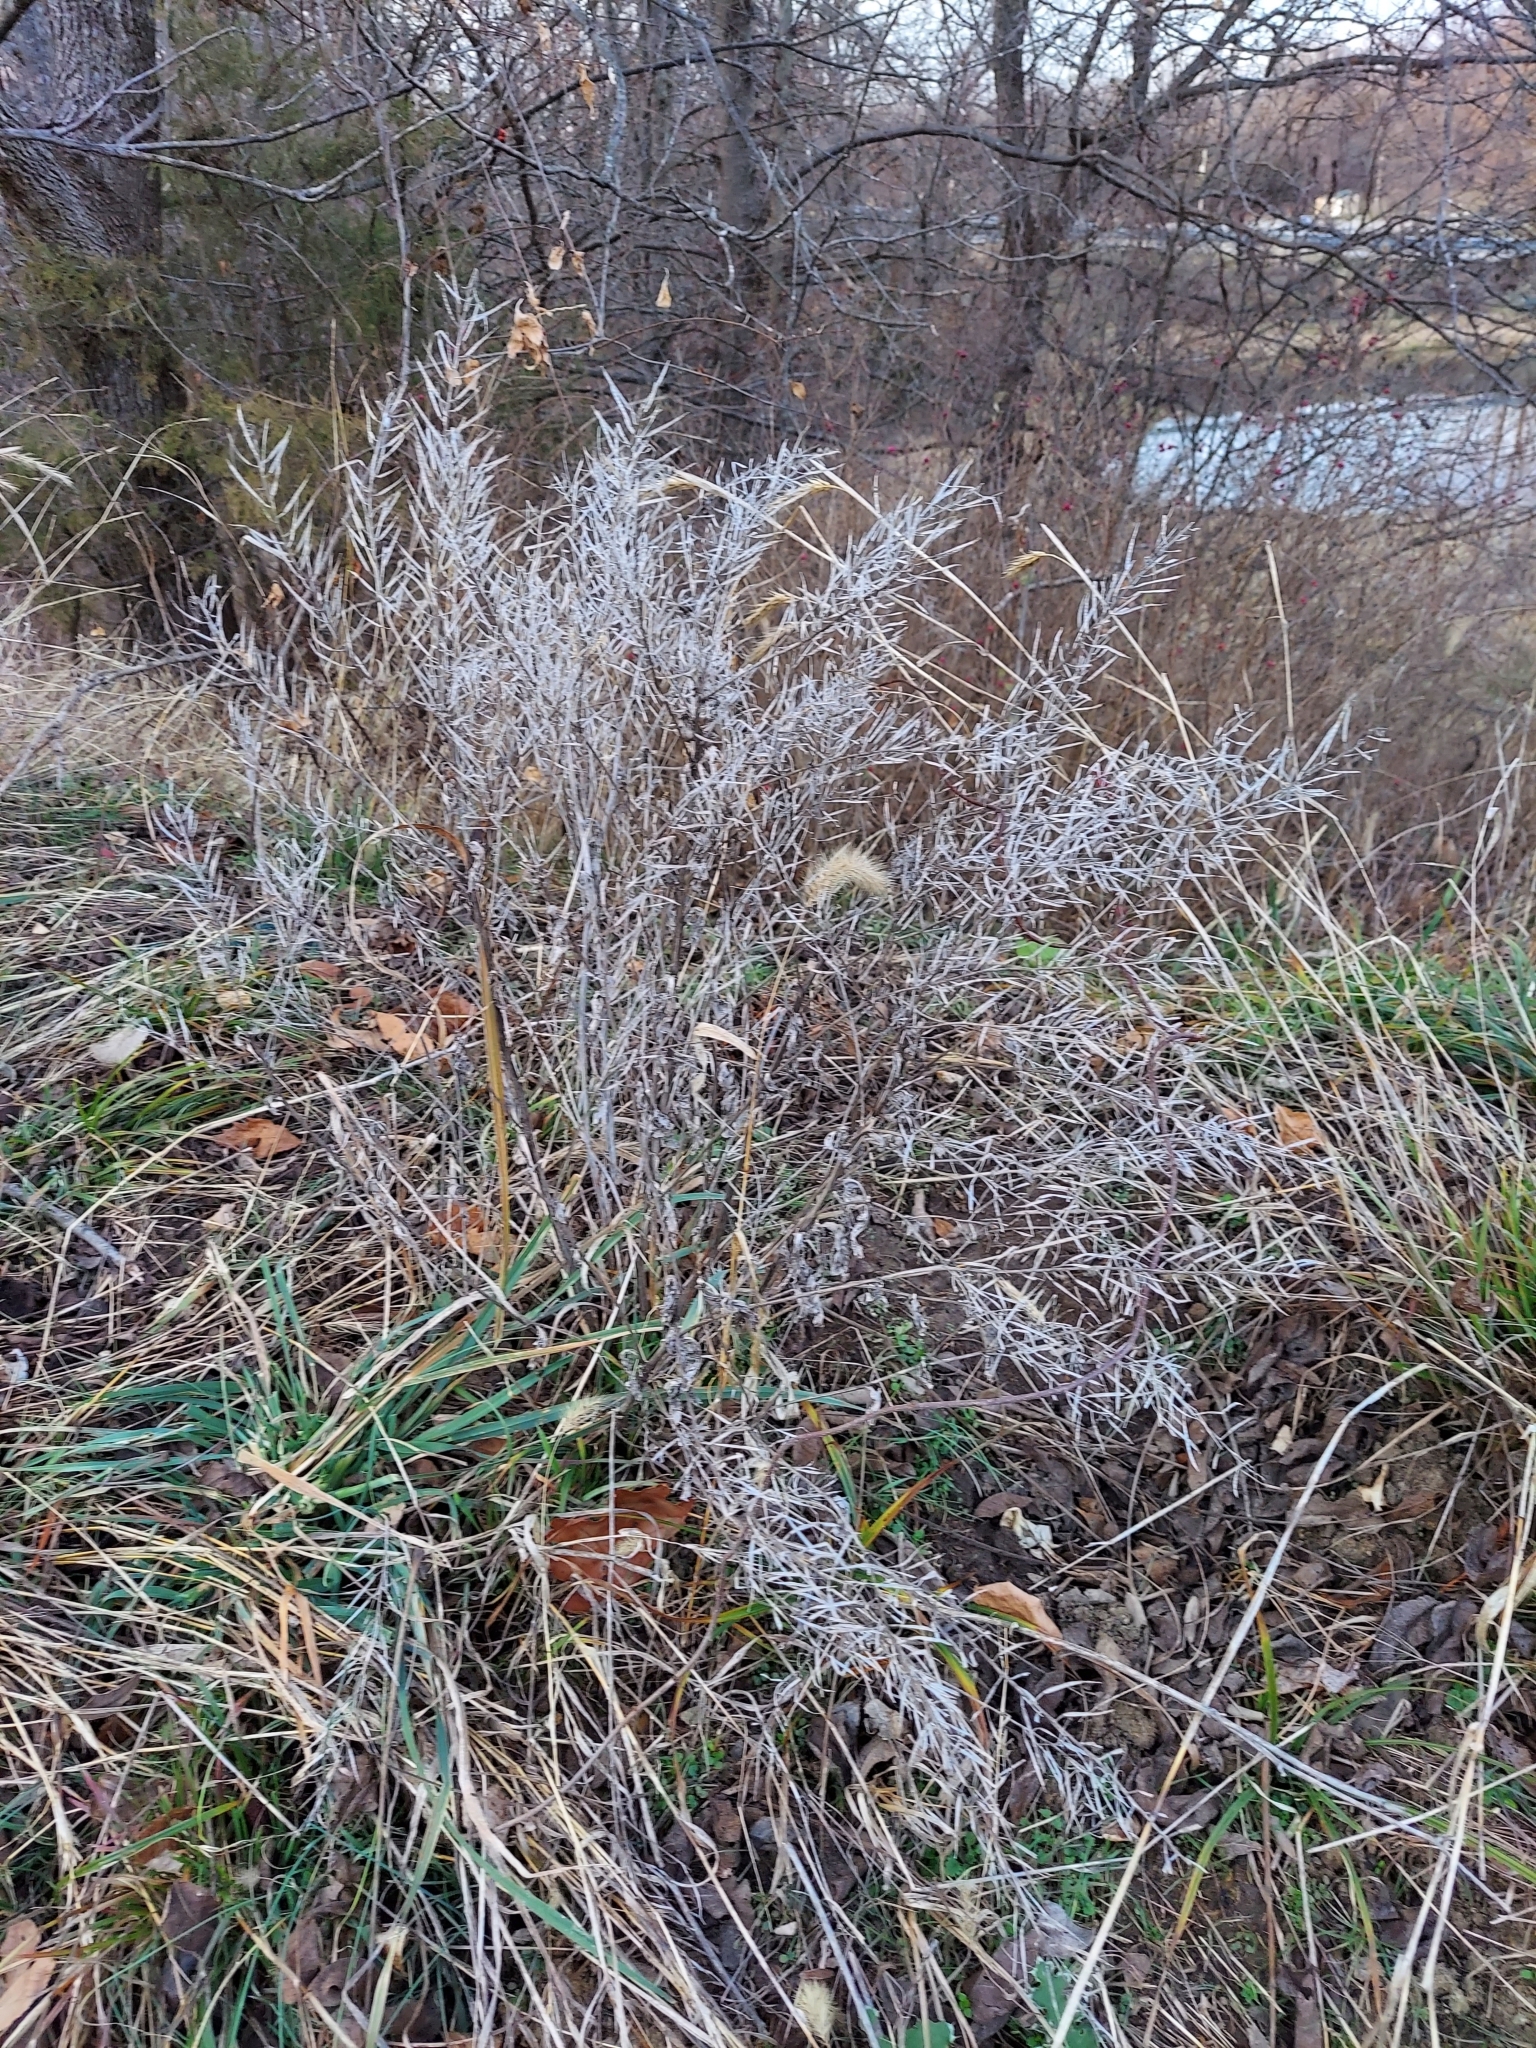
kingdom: Plantae
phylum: Tracheophyta
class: Magnoliopsida
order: Brassicales
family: Brassicaceae
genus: Barbarea
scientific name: Barbarea vulgaris
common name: Cressy-greens
